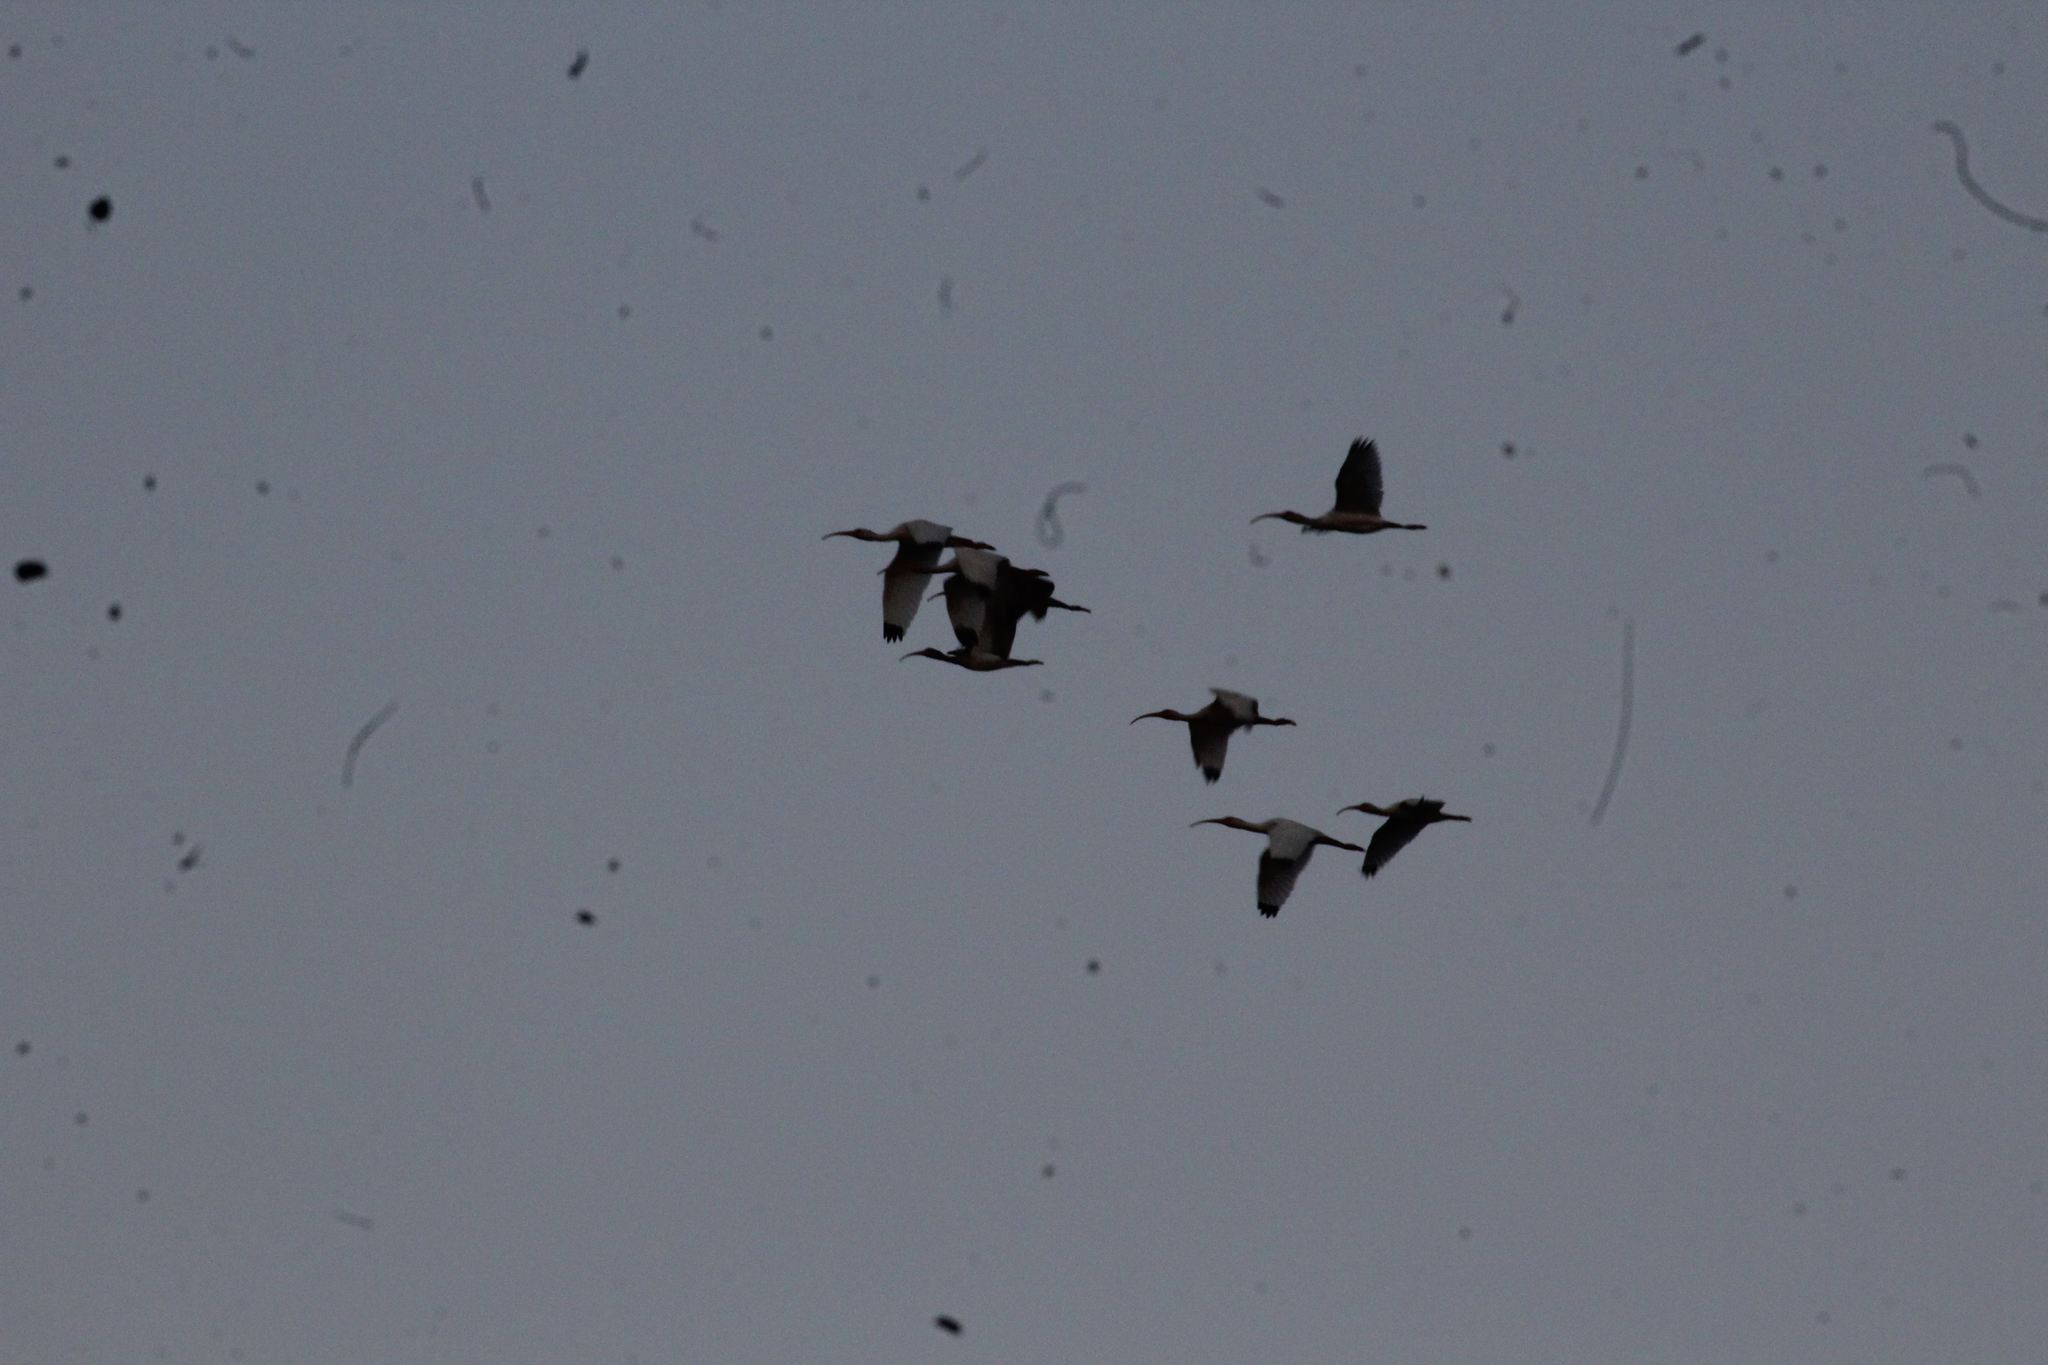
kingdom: Animalia
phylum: Chordata
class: Aves
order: Pelecaniformes
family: Threskiornithidae
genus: Eudocimus
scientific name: Eudocimus albus
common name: White ibis
